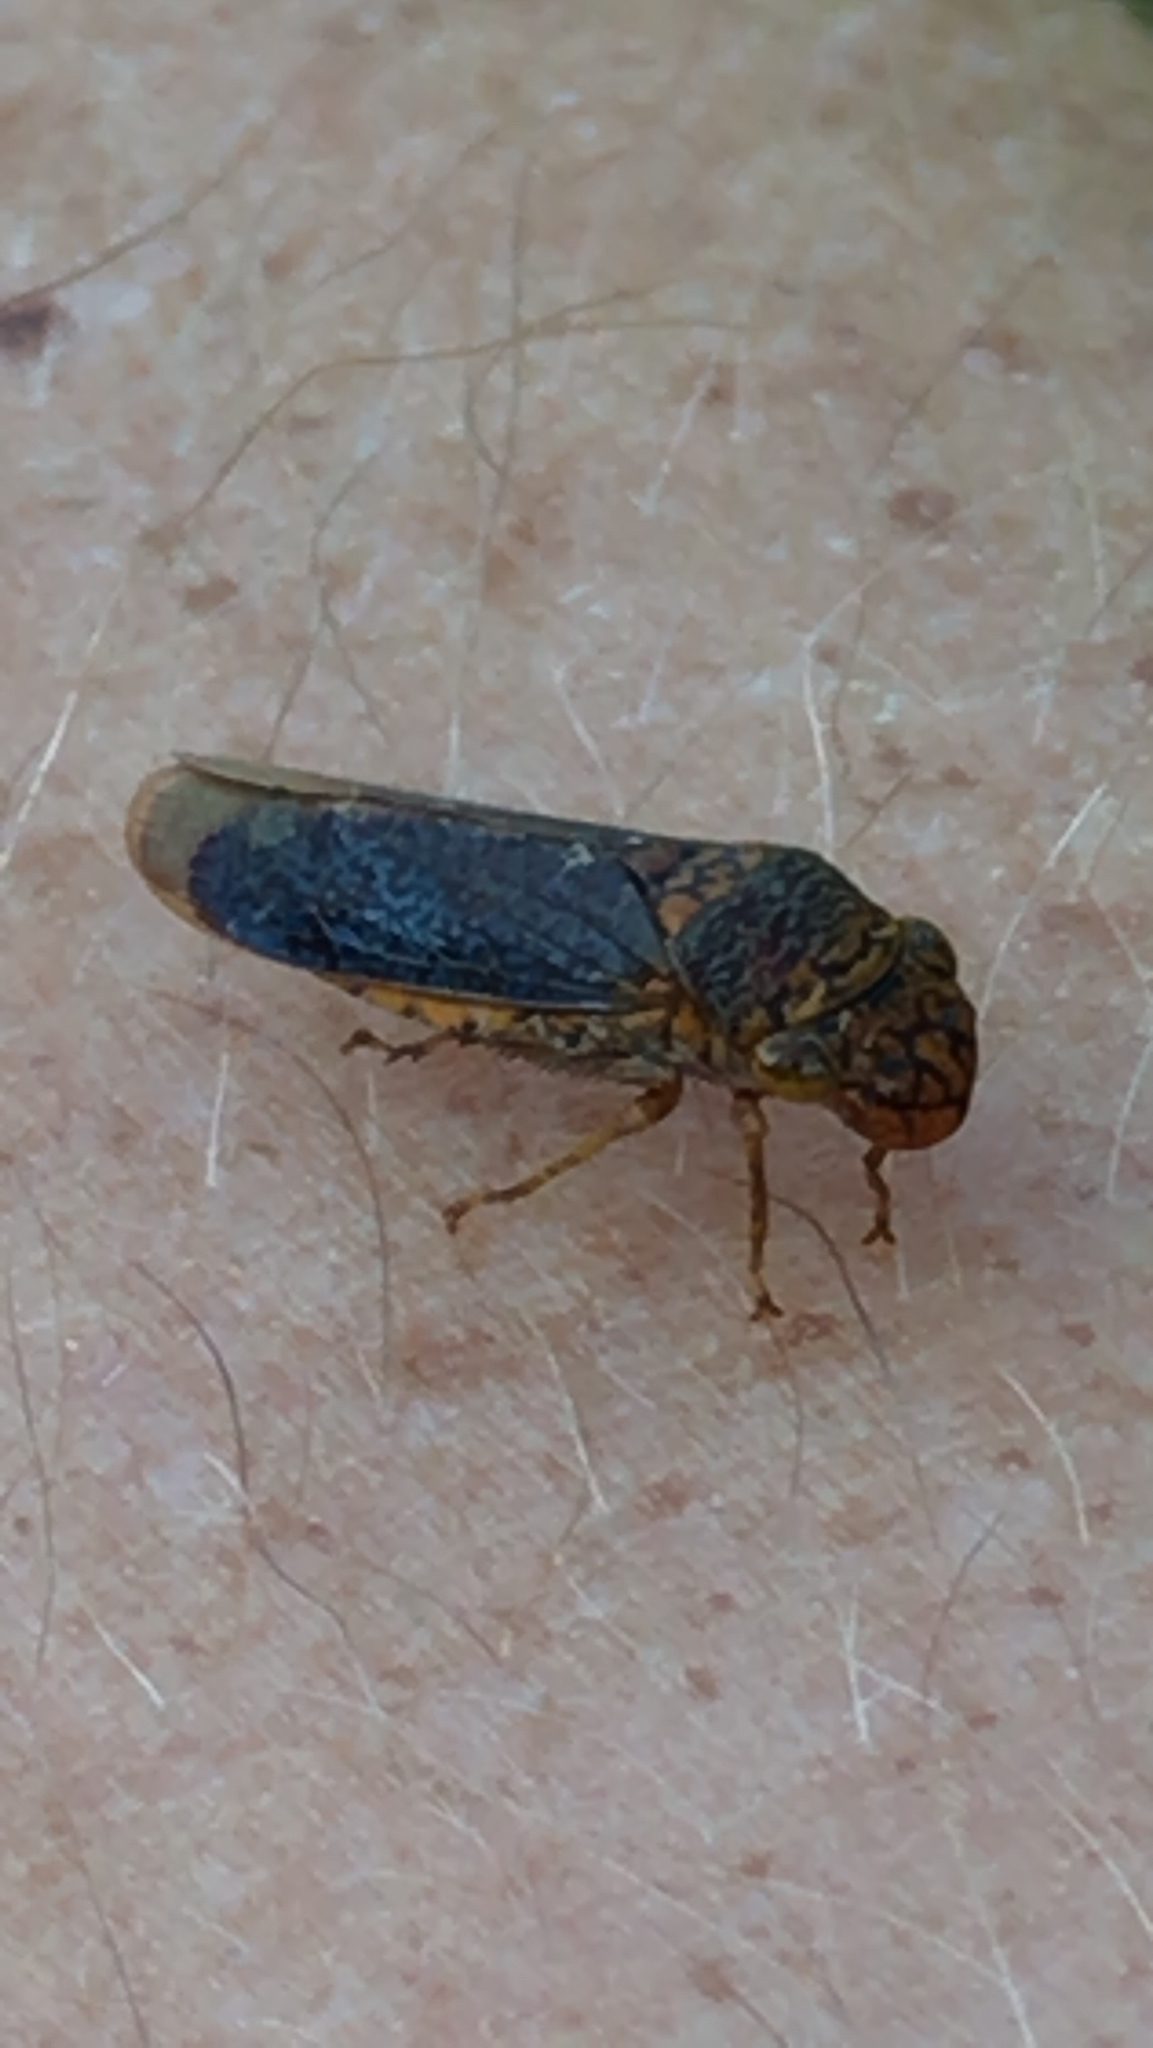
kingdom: Animalia
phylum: Arthropoda
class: Insecta
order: Hemiptera
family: Cicadellidae
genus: Oncometopia
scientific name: Oncometopia orbona
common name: Broad-headed sharpshooter
